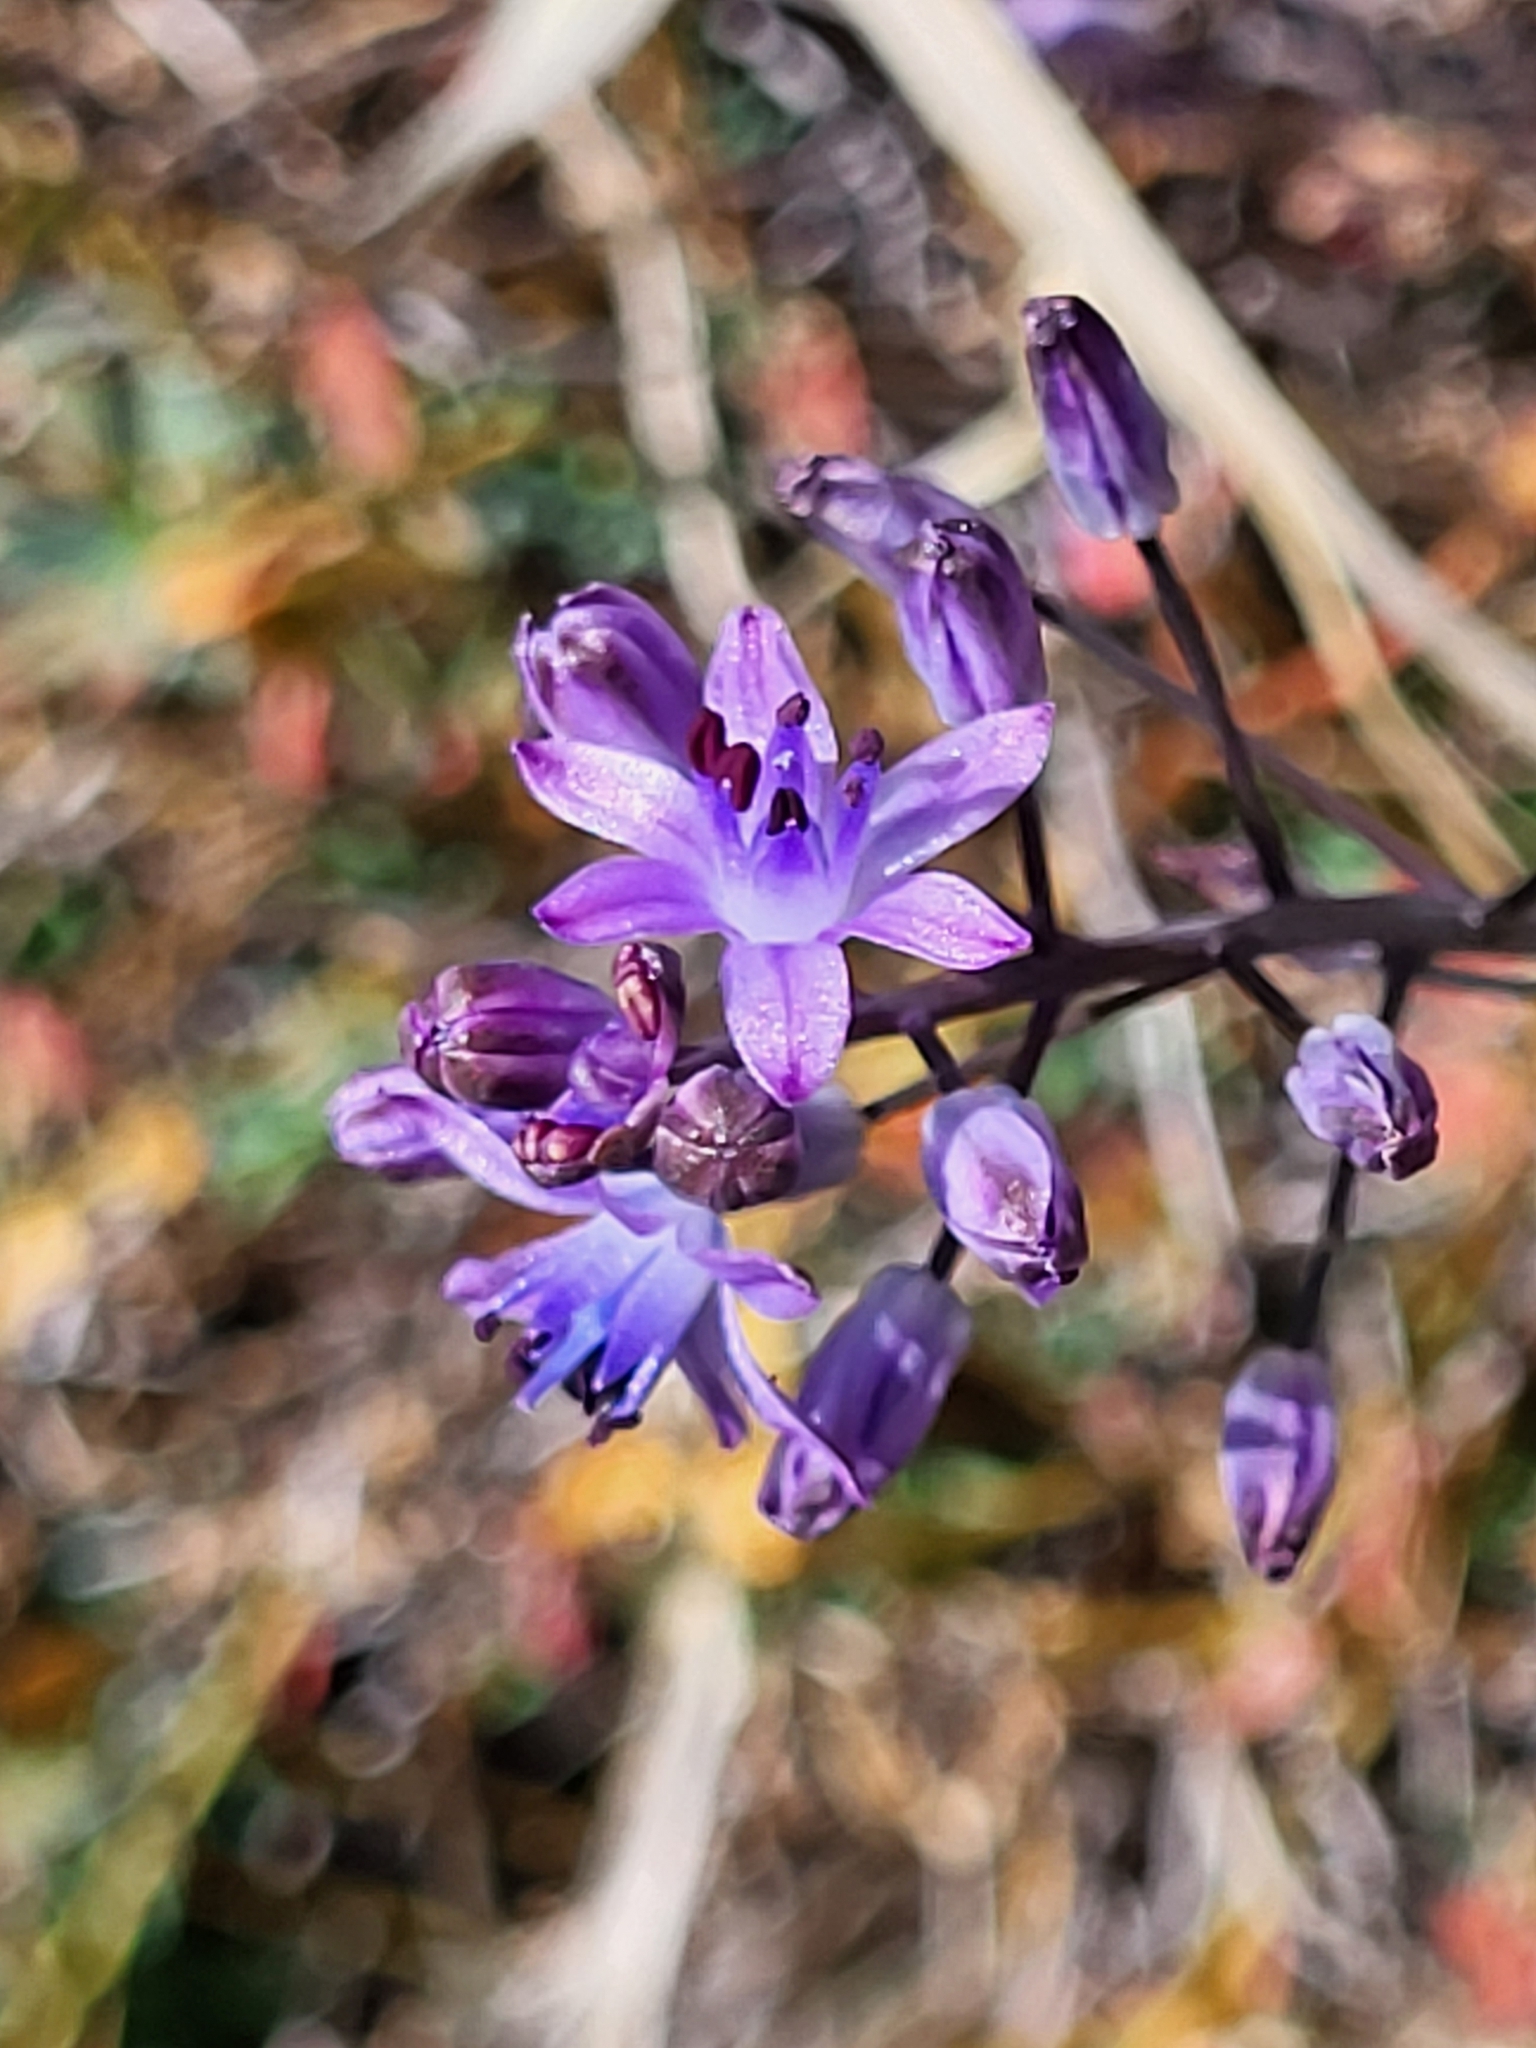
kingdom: Plantae
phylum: Tracheophyta
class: Liliopsida
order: Asparagales
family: Asparagaceae
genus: Prospero
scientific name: Prospero autumnale
